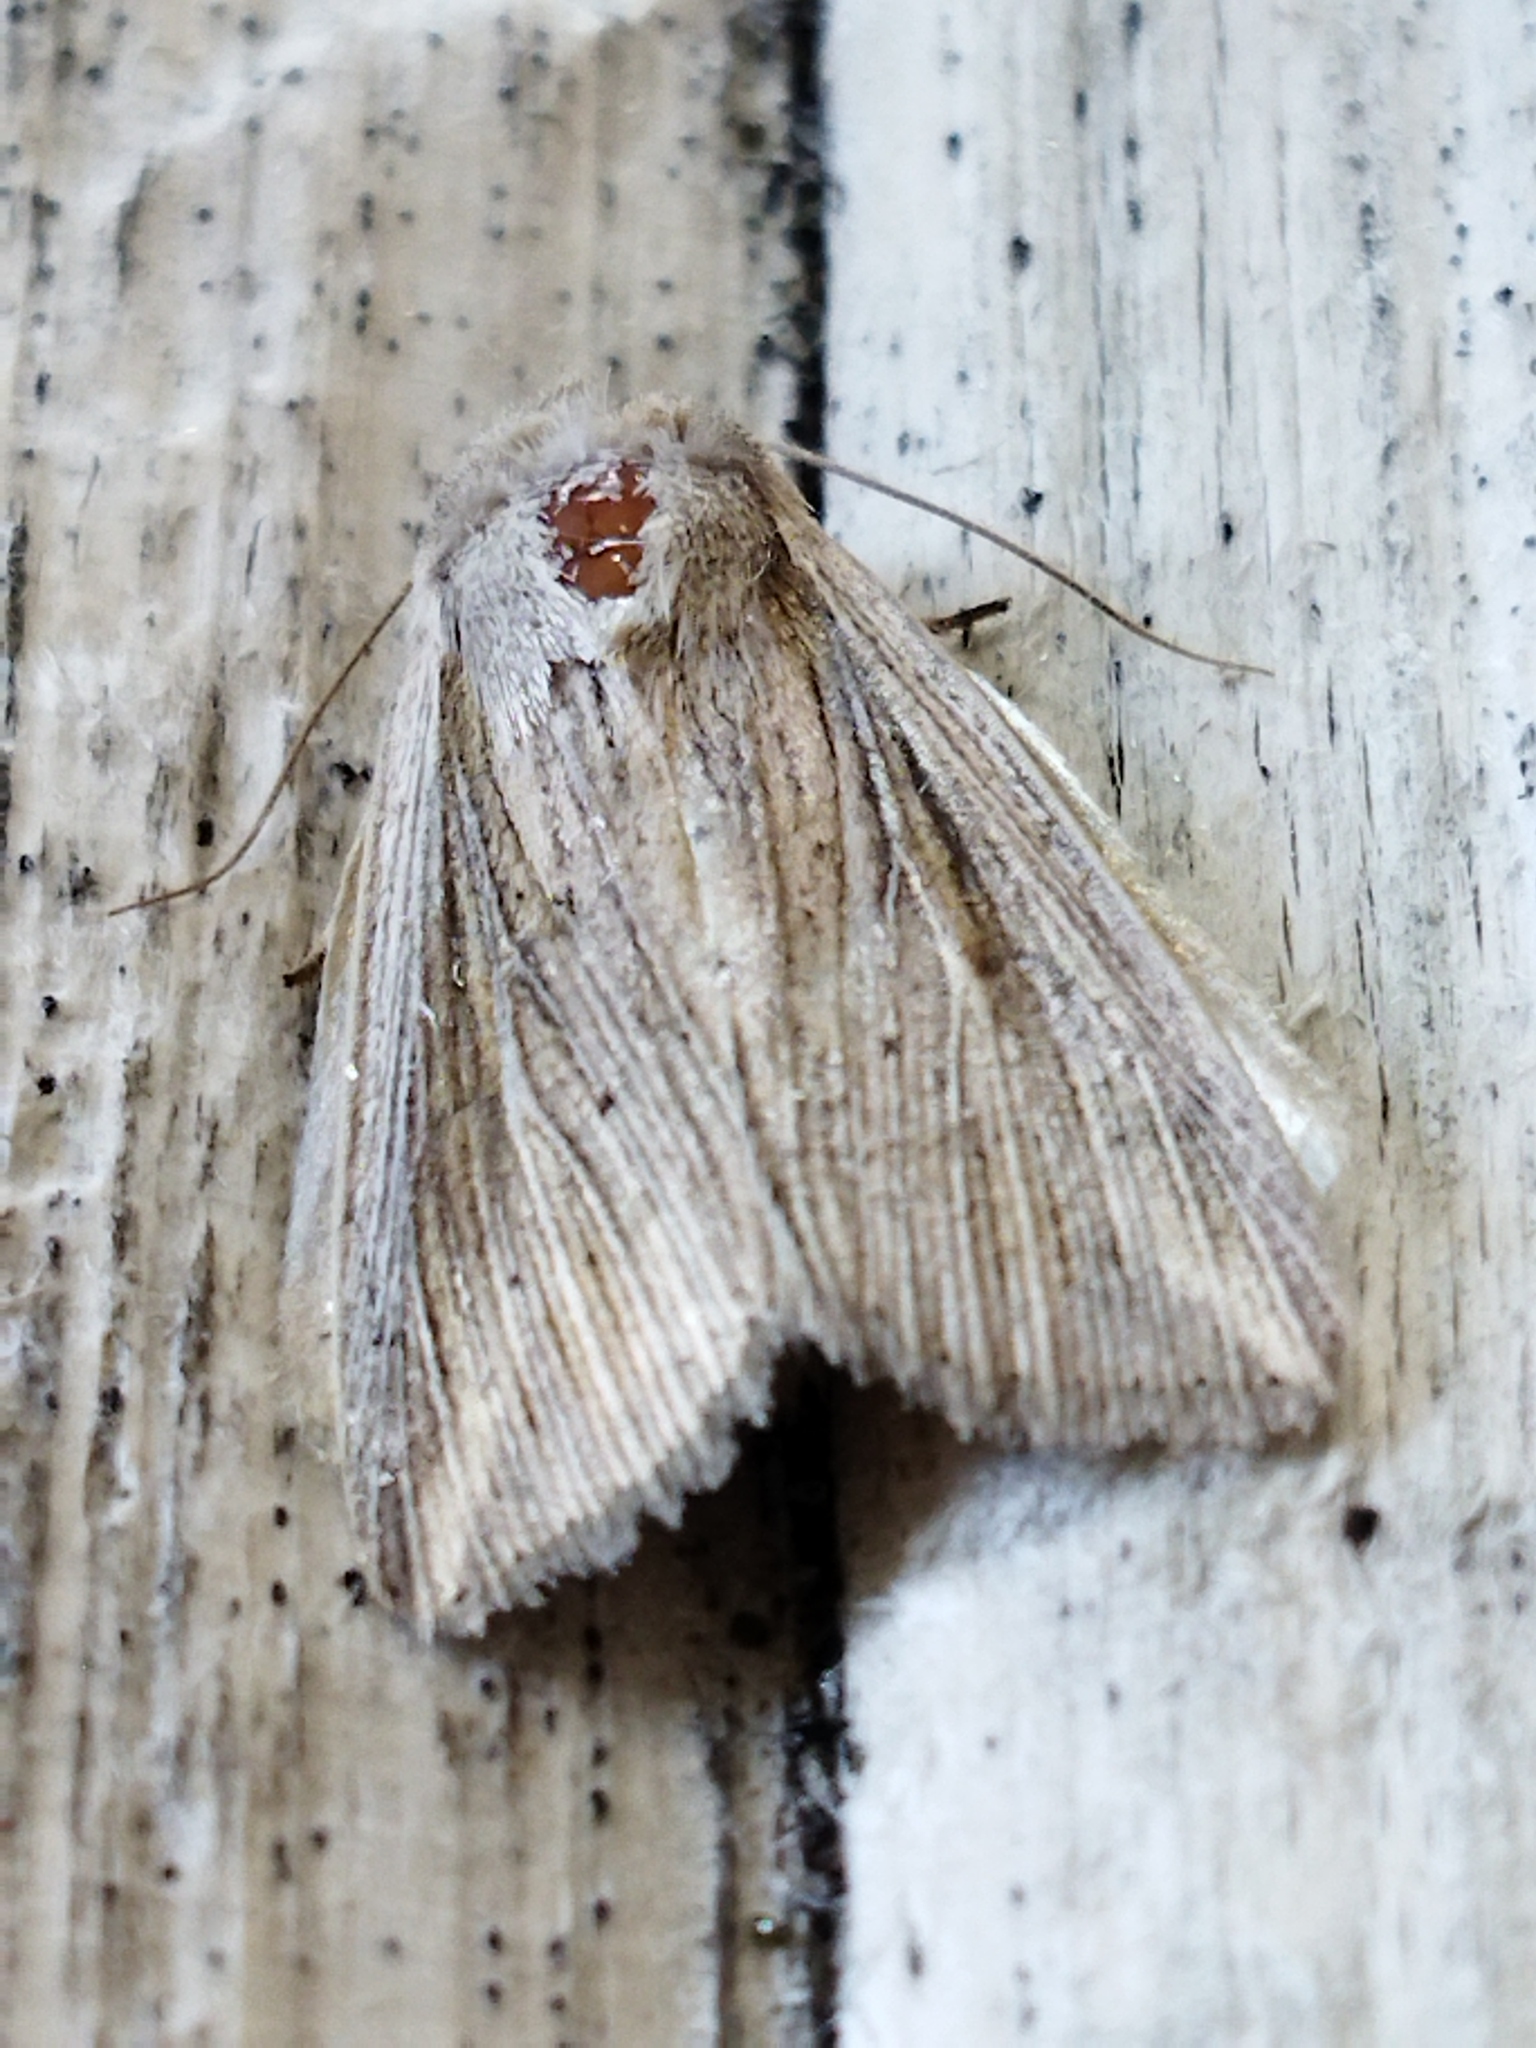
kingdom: Animalia
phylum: Arthropoda
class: Insecta
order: Lepidoptera
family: Noctuidae
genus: Mythimna
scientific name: Mythimna riparia
